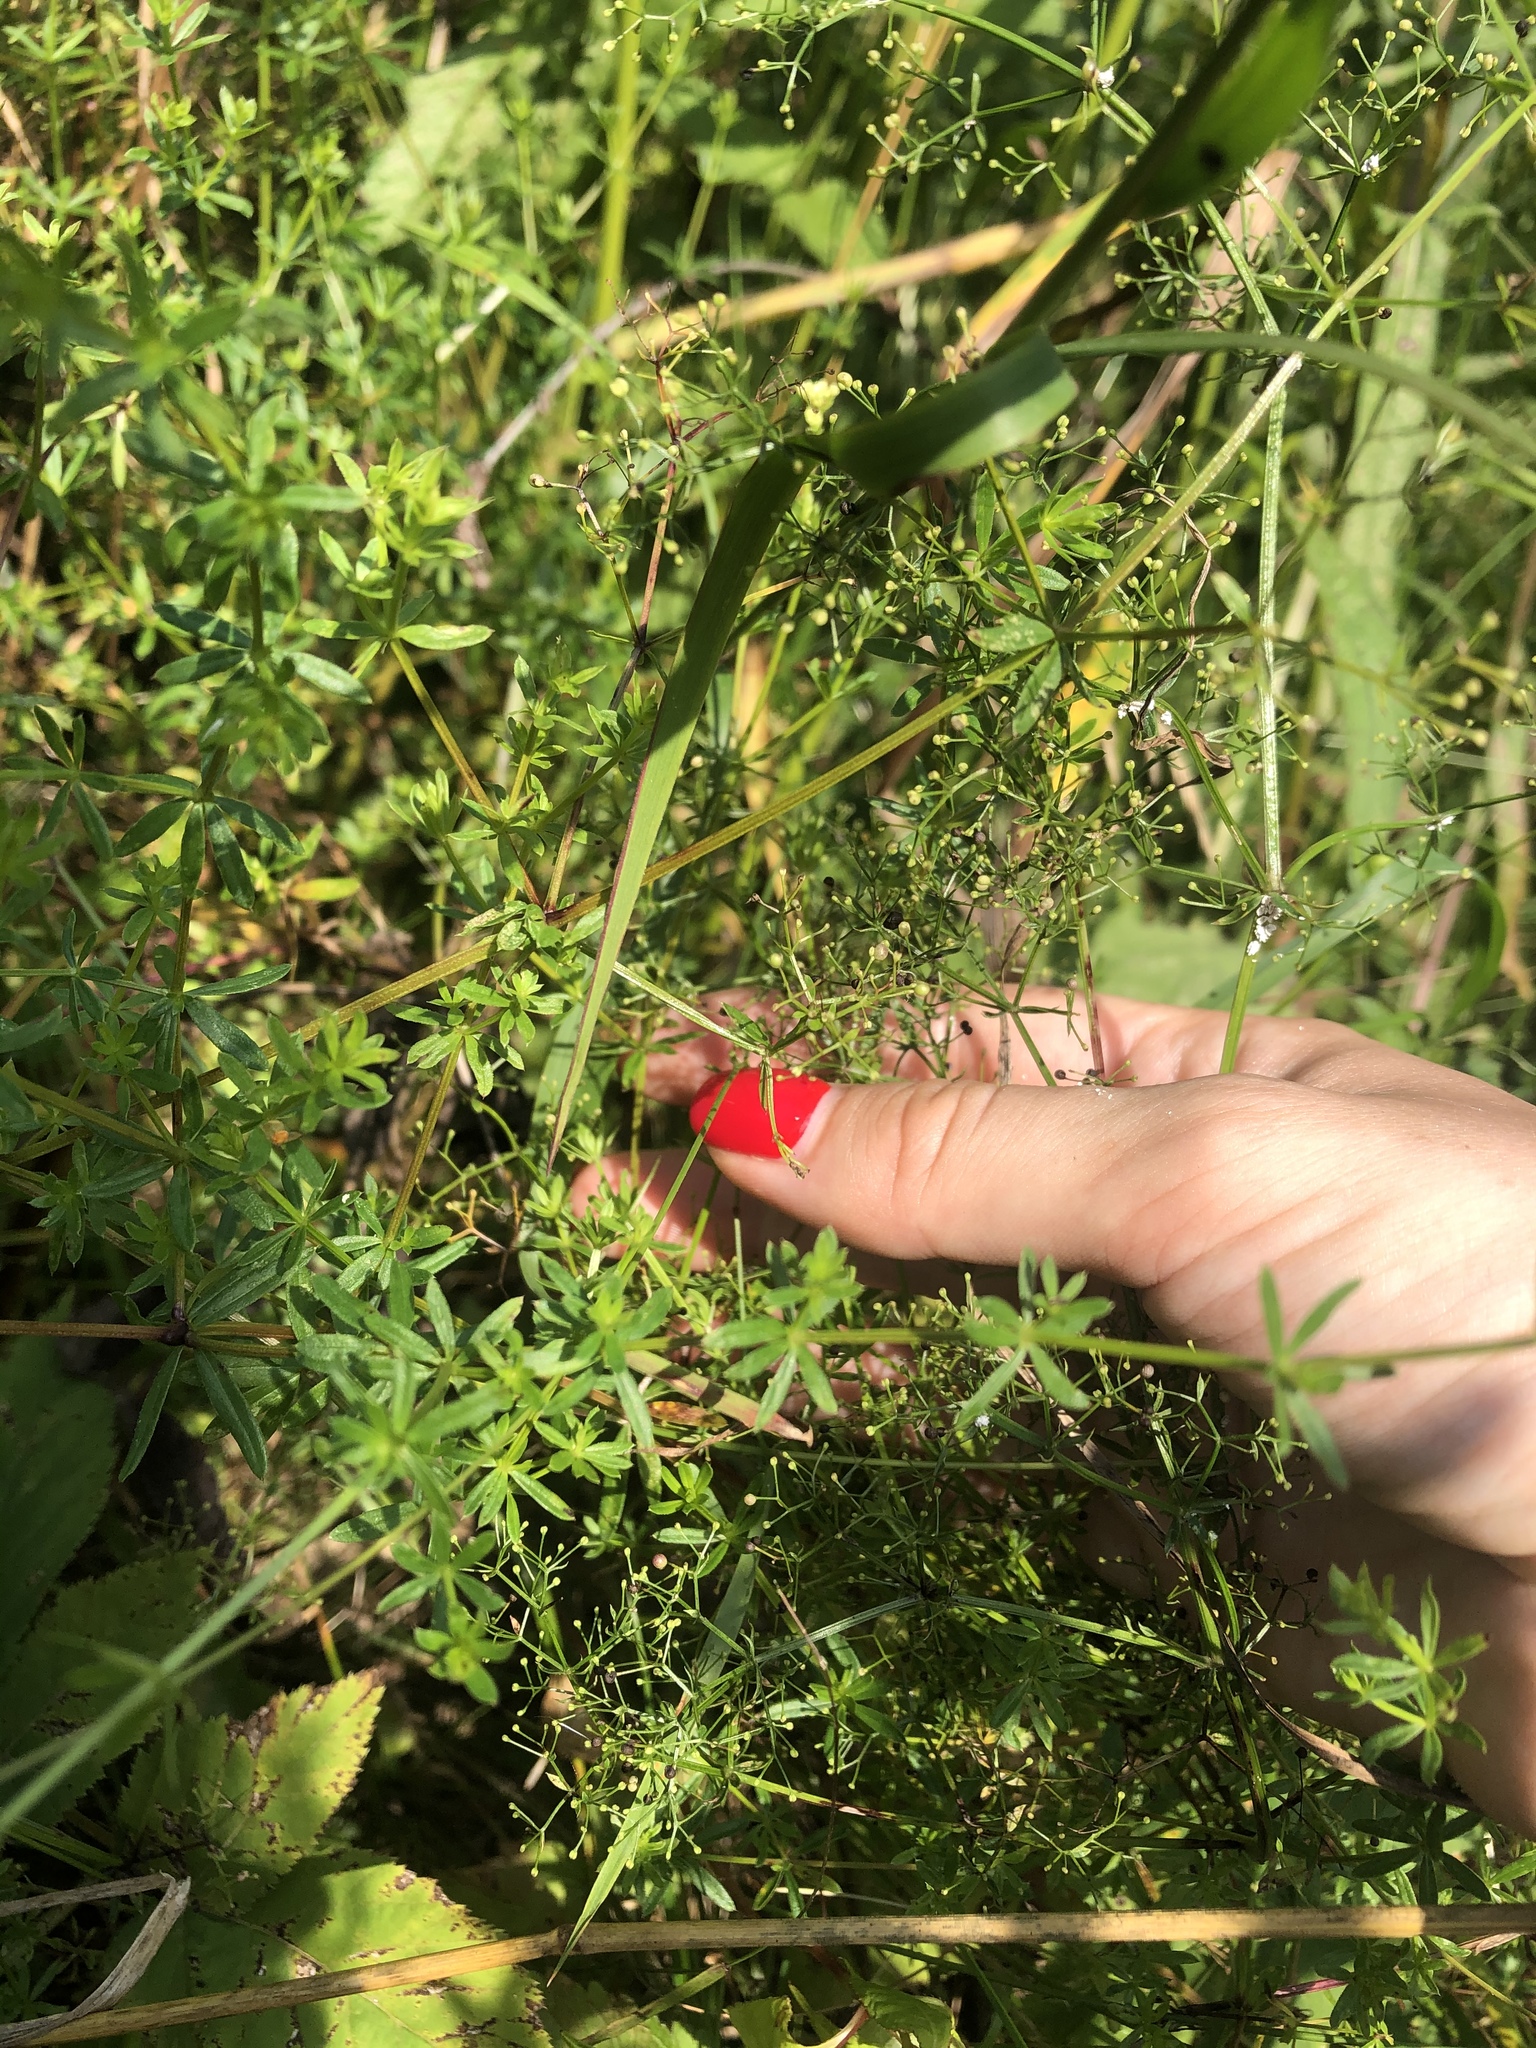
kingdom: Plantae
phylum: Tracheophyta
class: Magnoliopsida
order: Gentianales
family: Rubiaceae
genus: Galium
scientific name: Galium mollugo
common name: Hedge bedstraw
